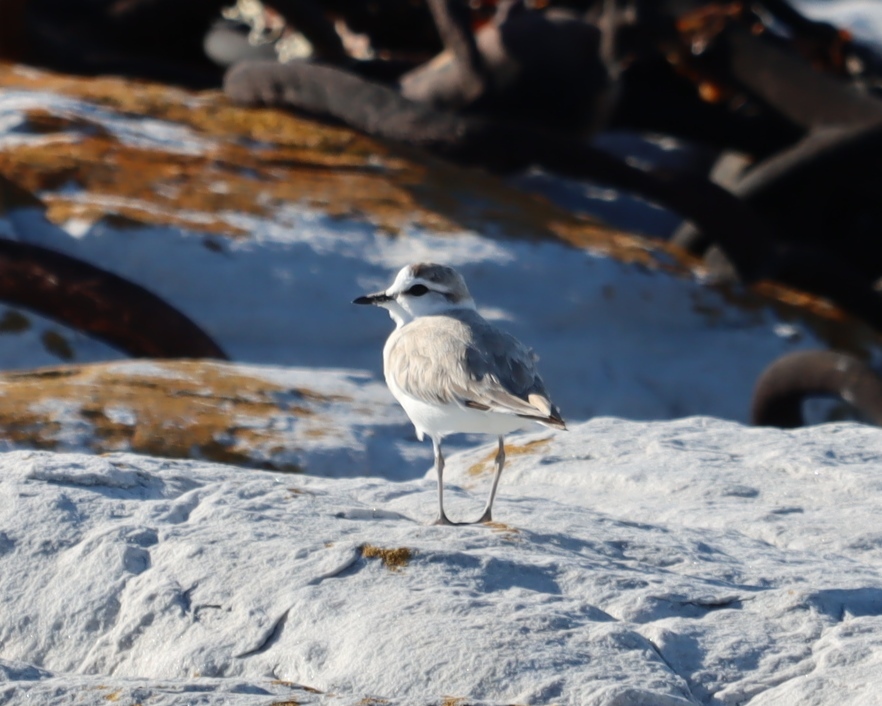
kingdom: Animalia
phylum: Chordata
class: Aves
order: Charadriiformes
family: Charadriidae
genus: Anarhynchus
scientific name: Anarhynchus
